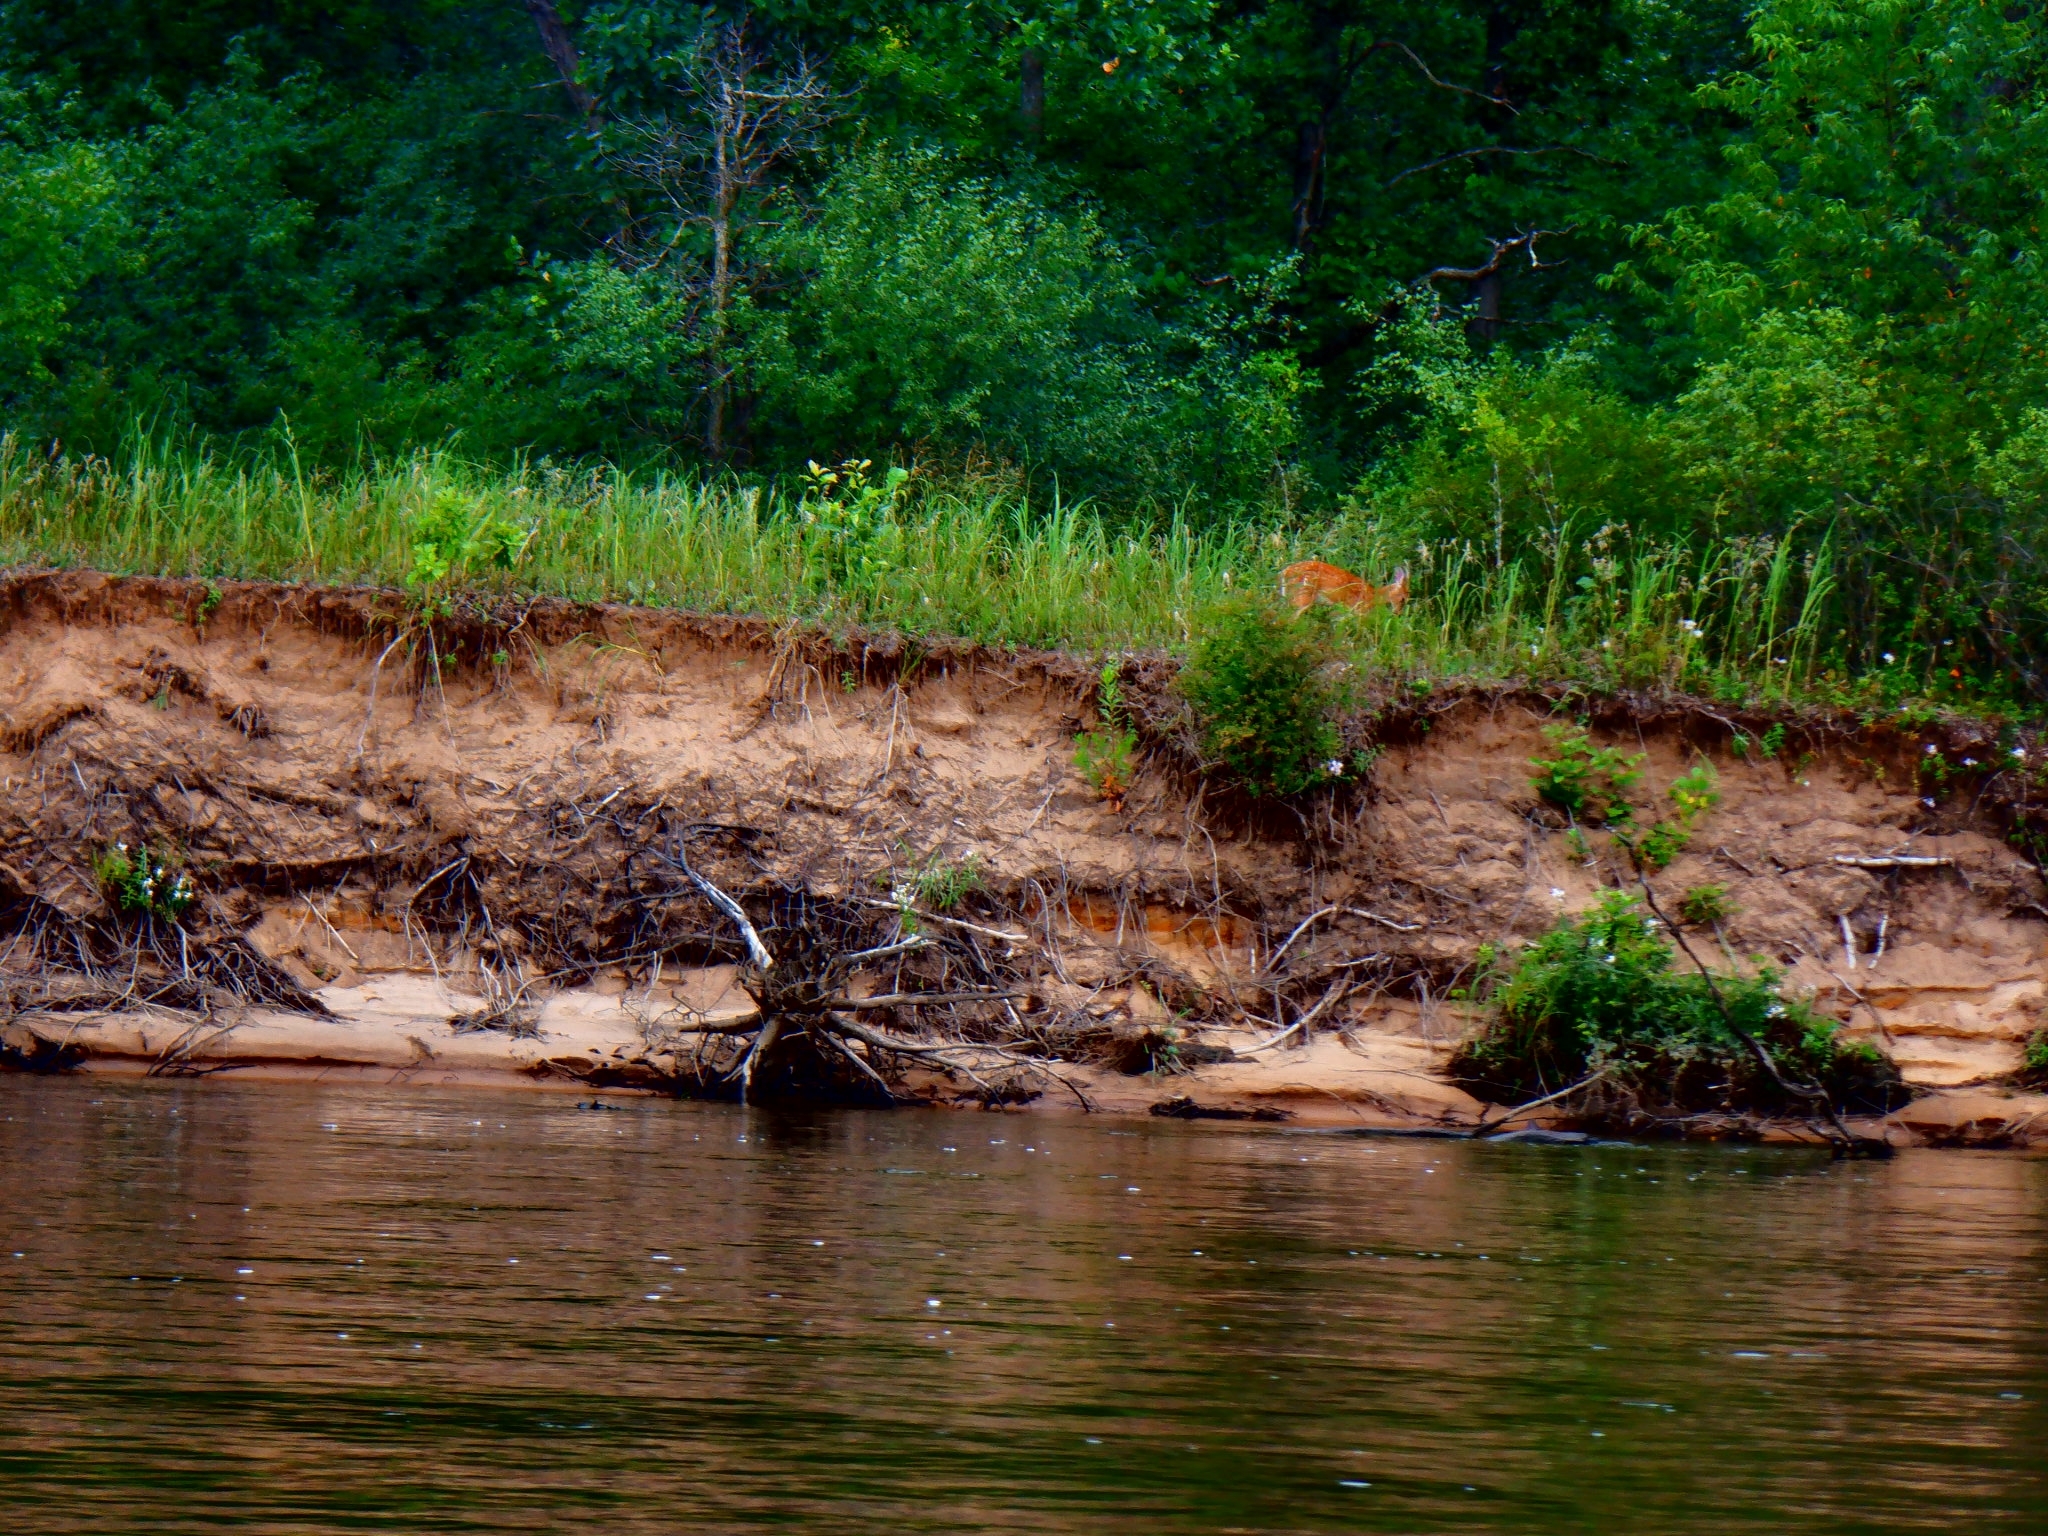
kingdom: Animalia
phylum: Chordata
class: Mammalia
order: Artiodactyla
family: Cervidae
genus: Odocoileus
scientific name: Odocoileus virginianus
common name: White-tailed deer
